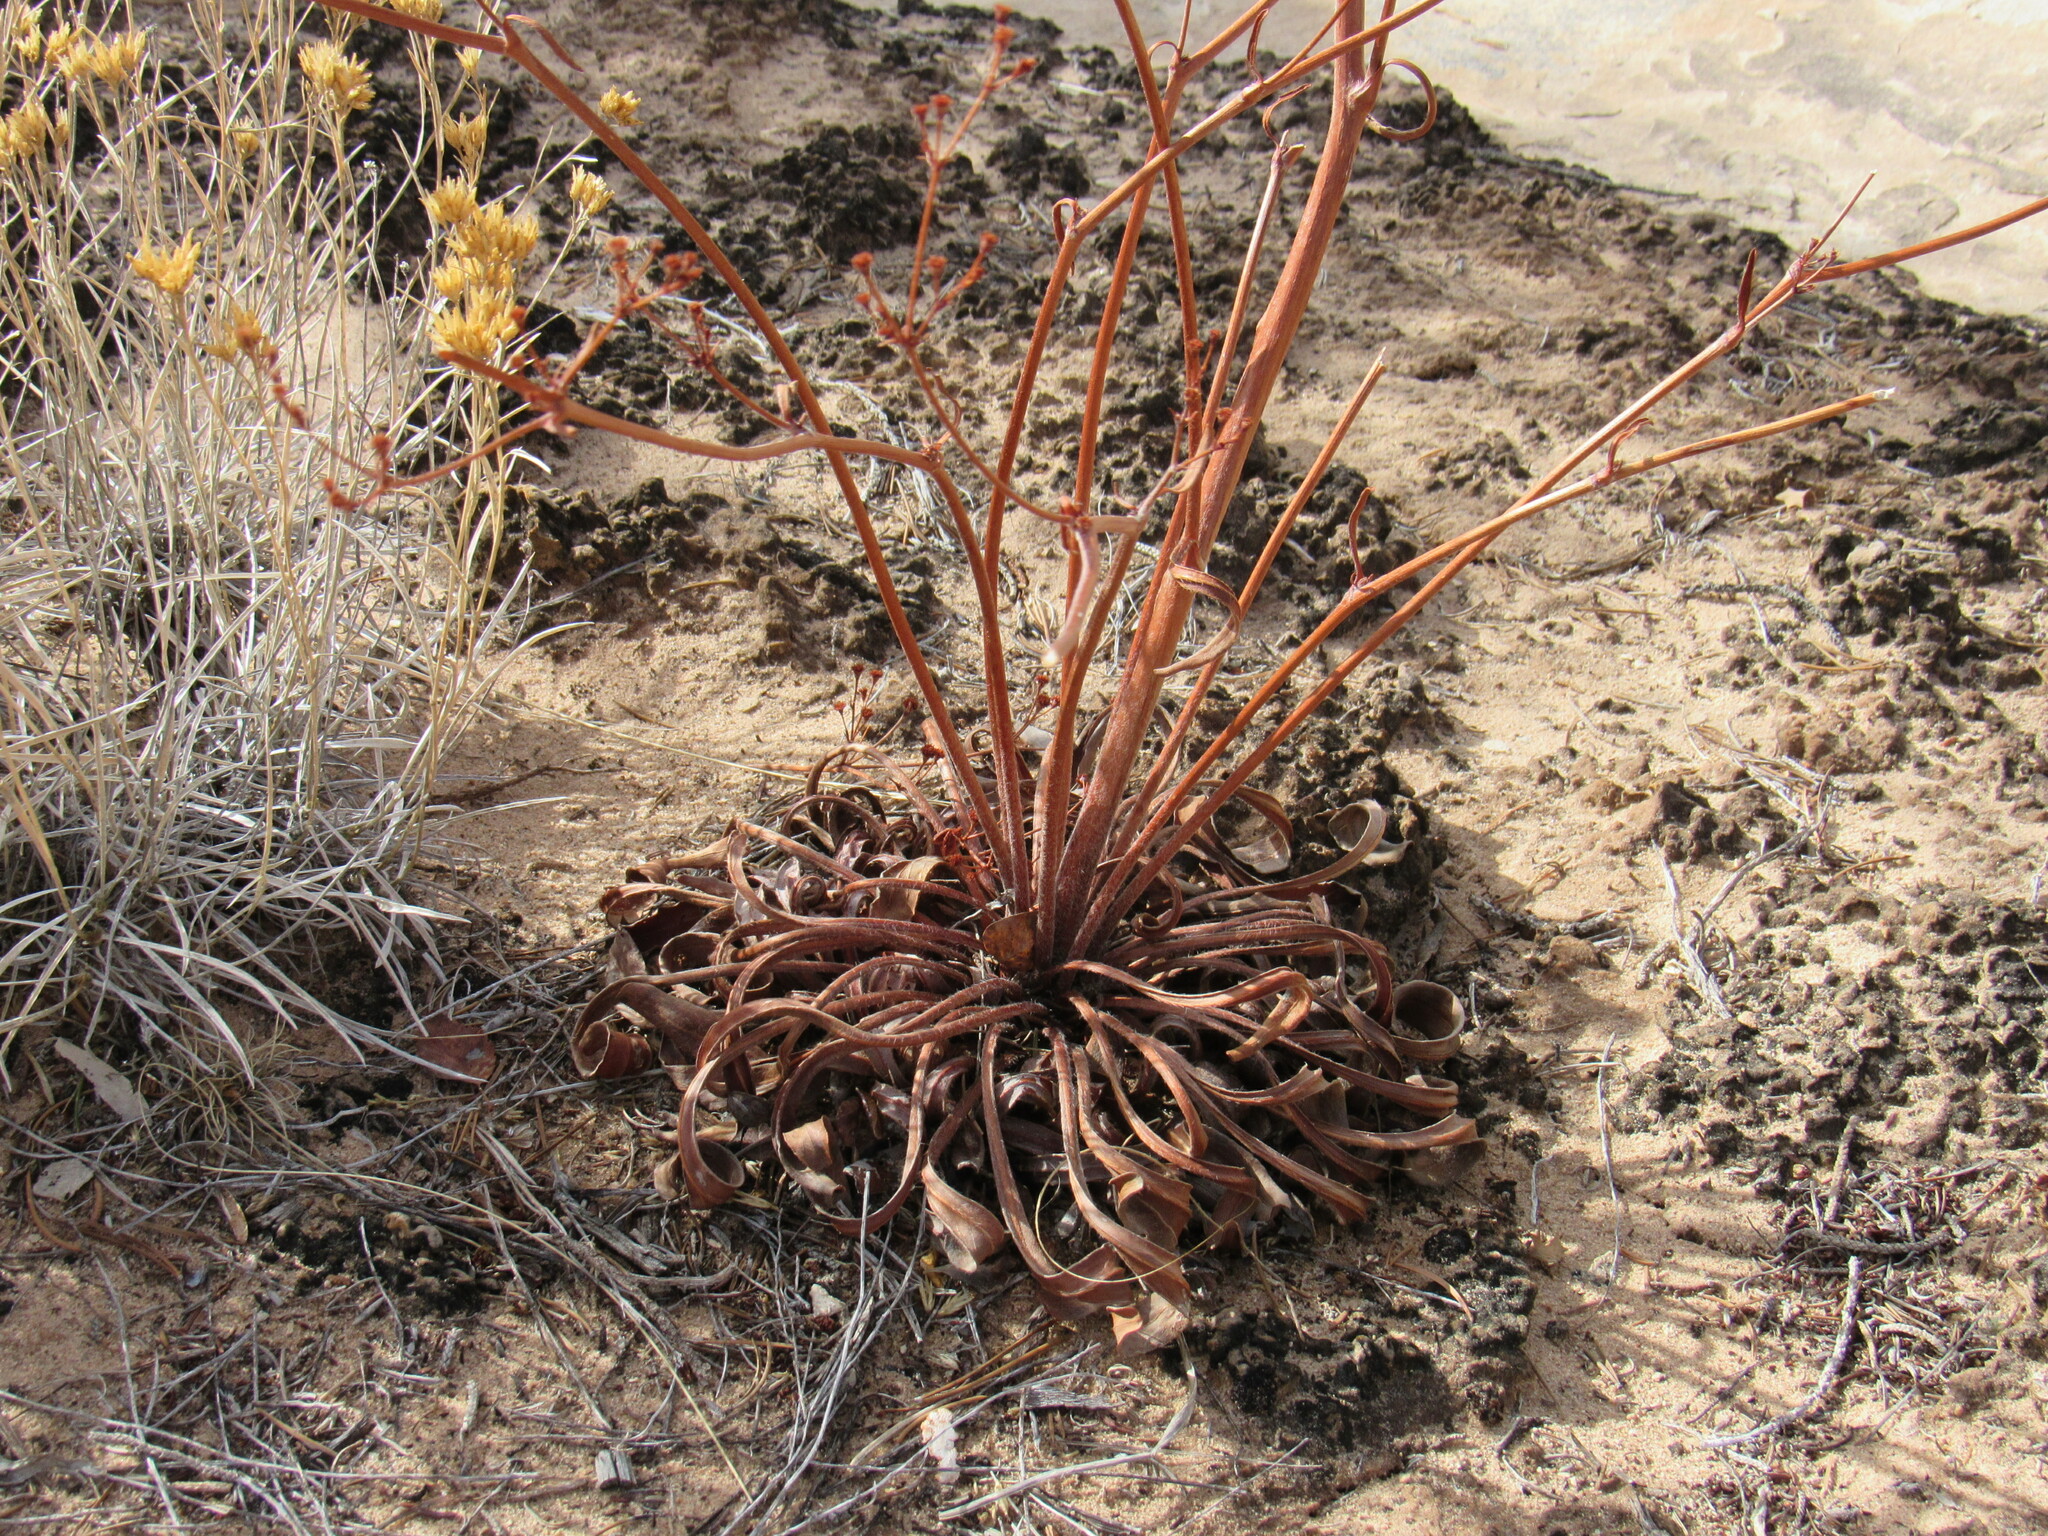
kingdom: Plantae
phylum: Tracheophyta
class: Magnoliopsida
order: Caryophyllales
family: Polygonaceae
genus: Eriogonum
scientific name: Eriogonum alatum
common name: Winged eriogonum
